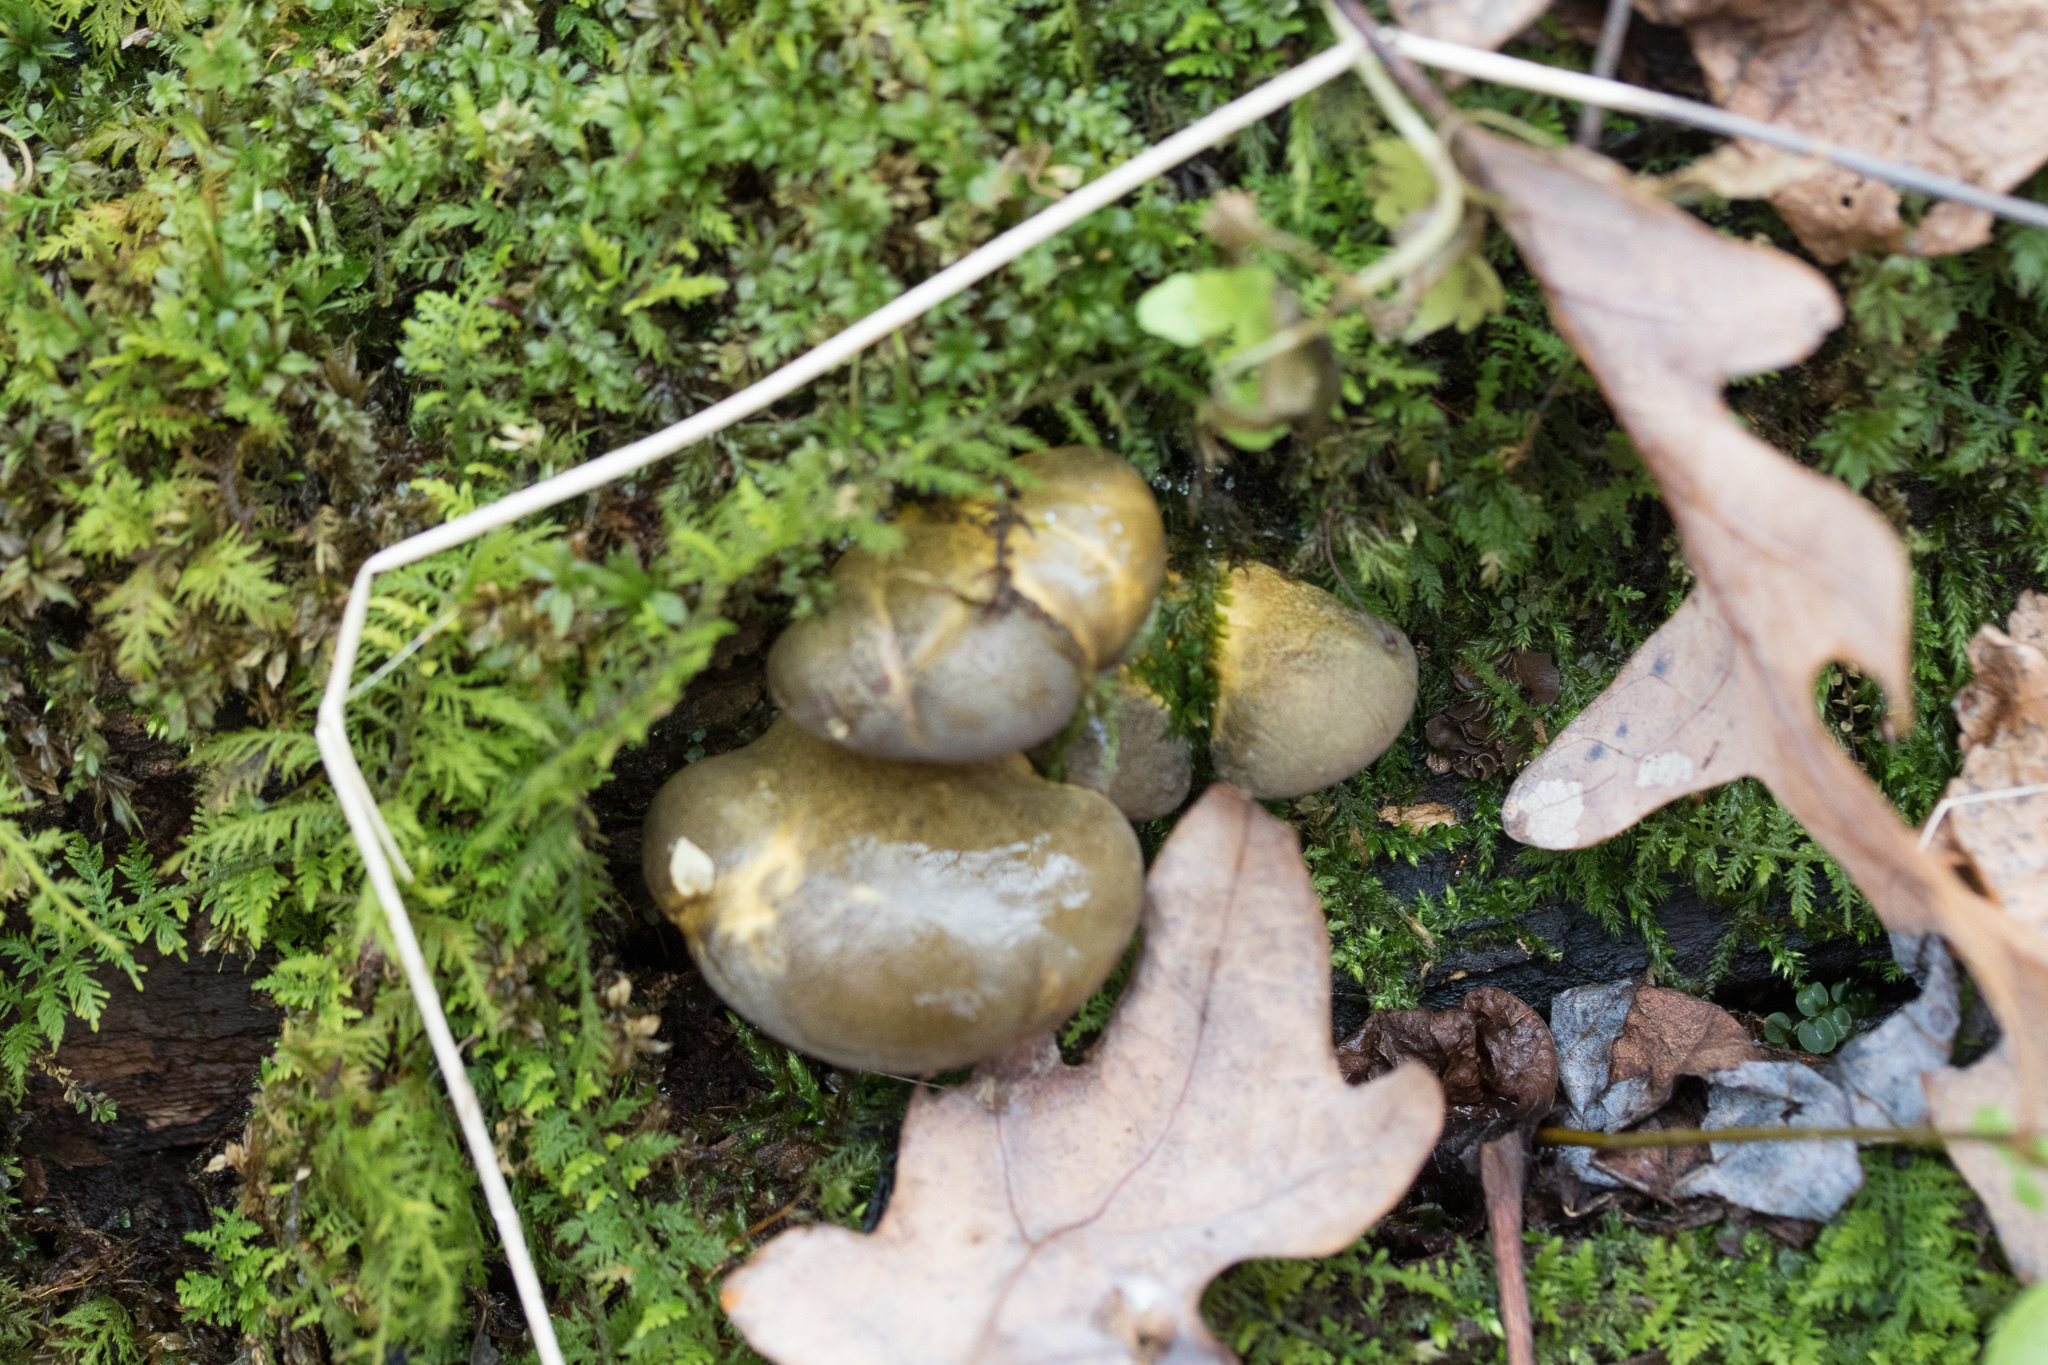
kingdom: Fungi
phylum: Basidiomycota
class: Agaricomycetes
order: Agaricales
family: Sarcomyxaceae
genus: Sarcomyxa
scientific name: Sarcomyxa serotina
